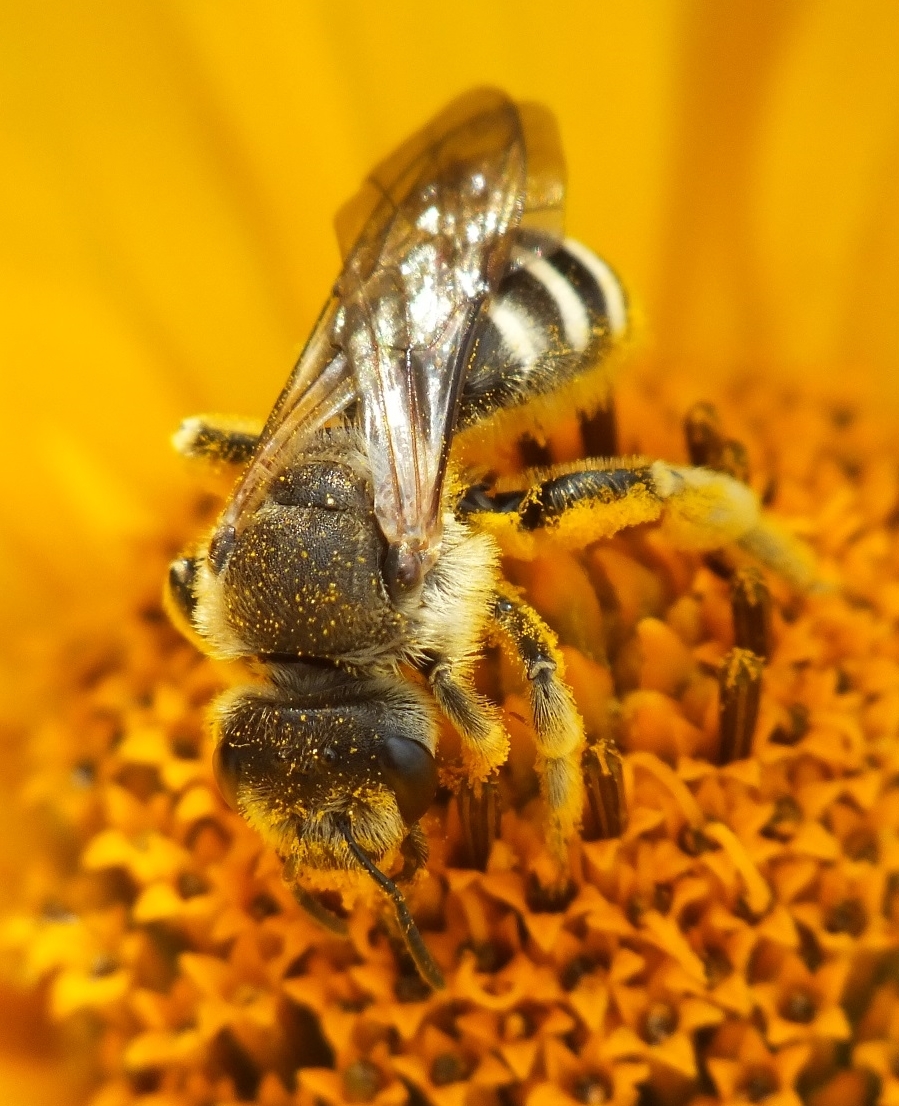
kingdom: Animalia
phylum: Arthropoda
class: Insecta
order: Hymenoptera
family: Halictidae
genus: Halictus
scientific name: Halictus scabiosae
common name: Great banded furrow bee
